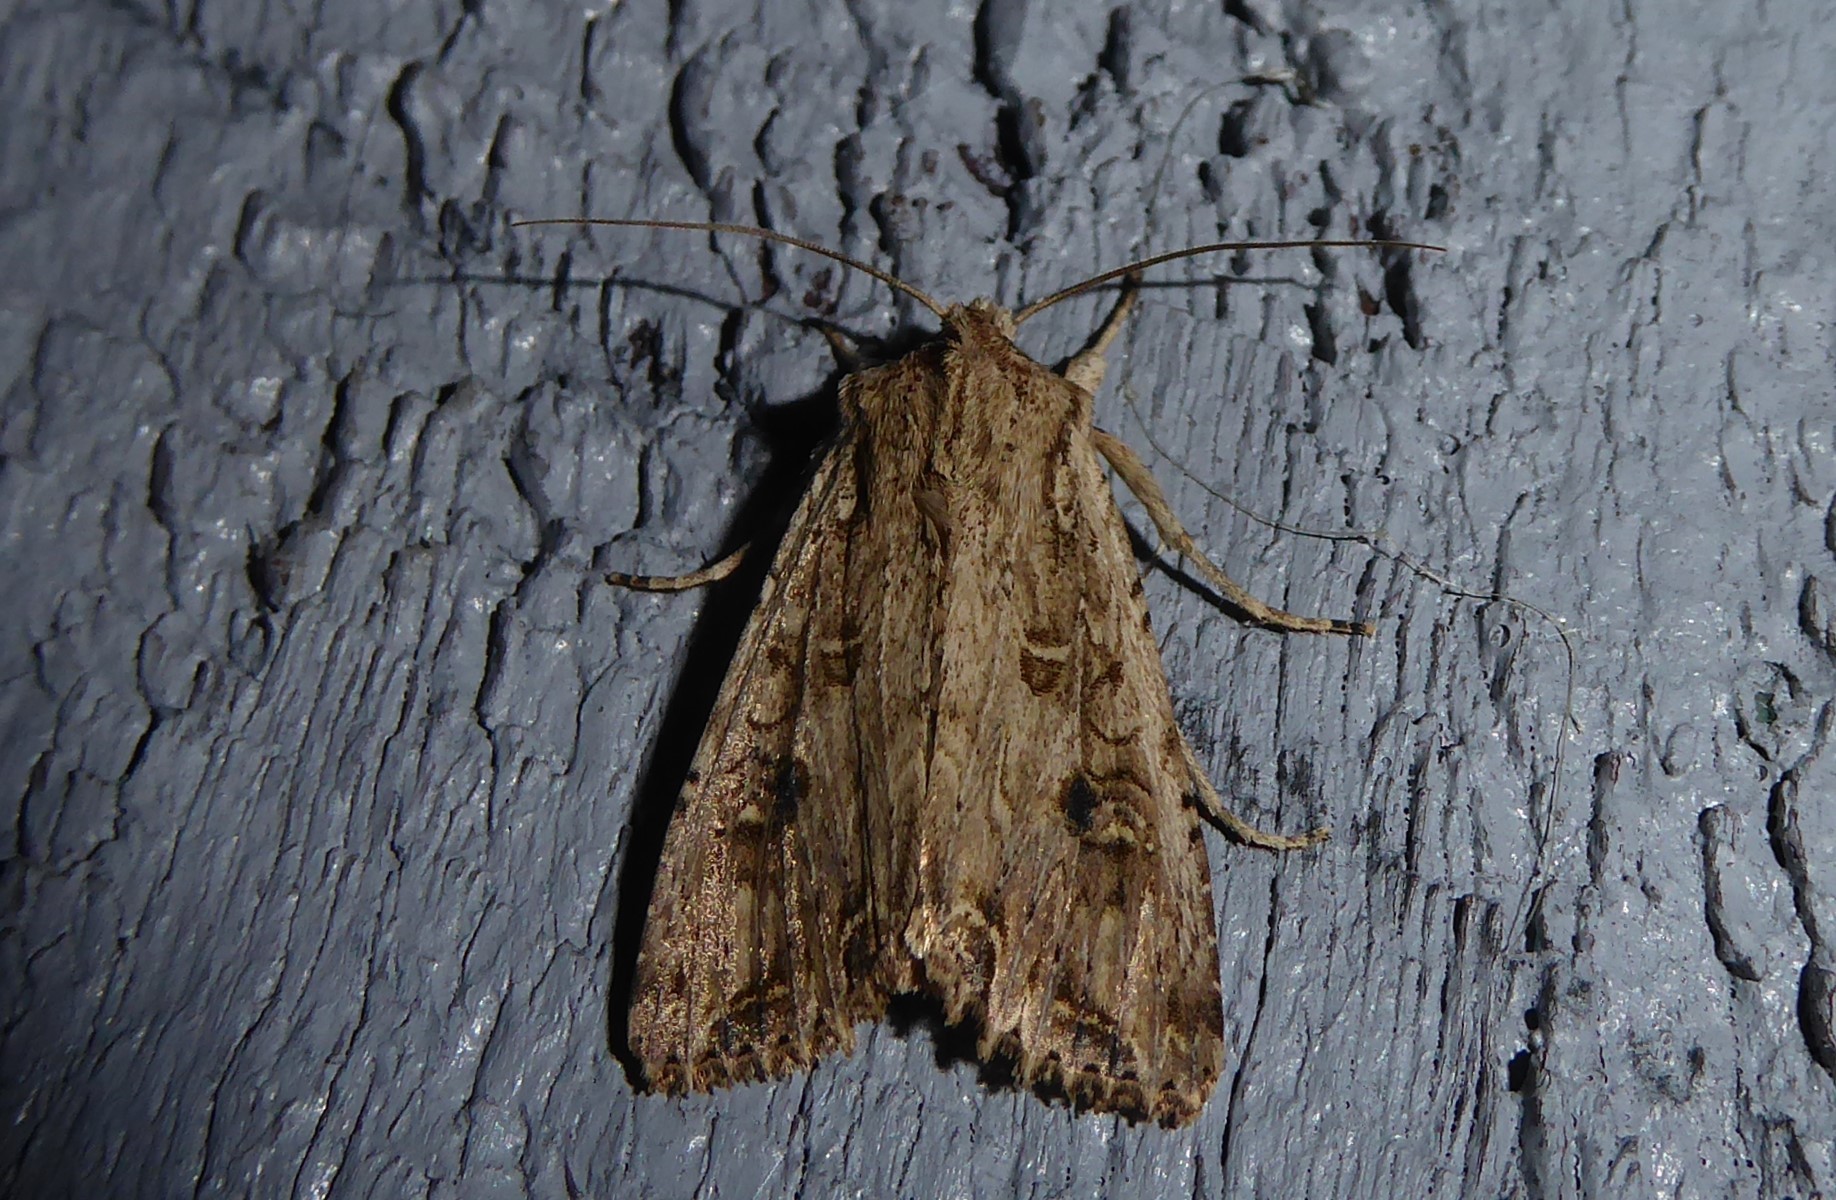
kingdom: Animalia
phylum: Arthropoda
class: Insecta
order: Lepidoptera
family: Noctuidae
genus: Ichneutica
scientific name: Ichneutica lignana
